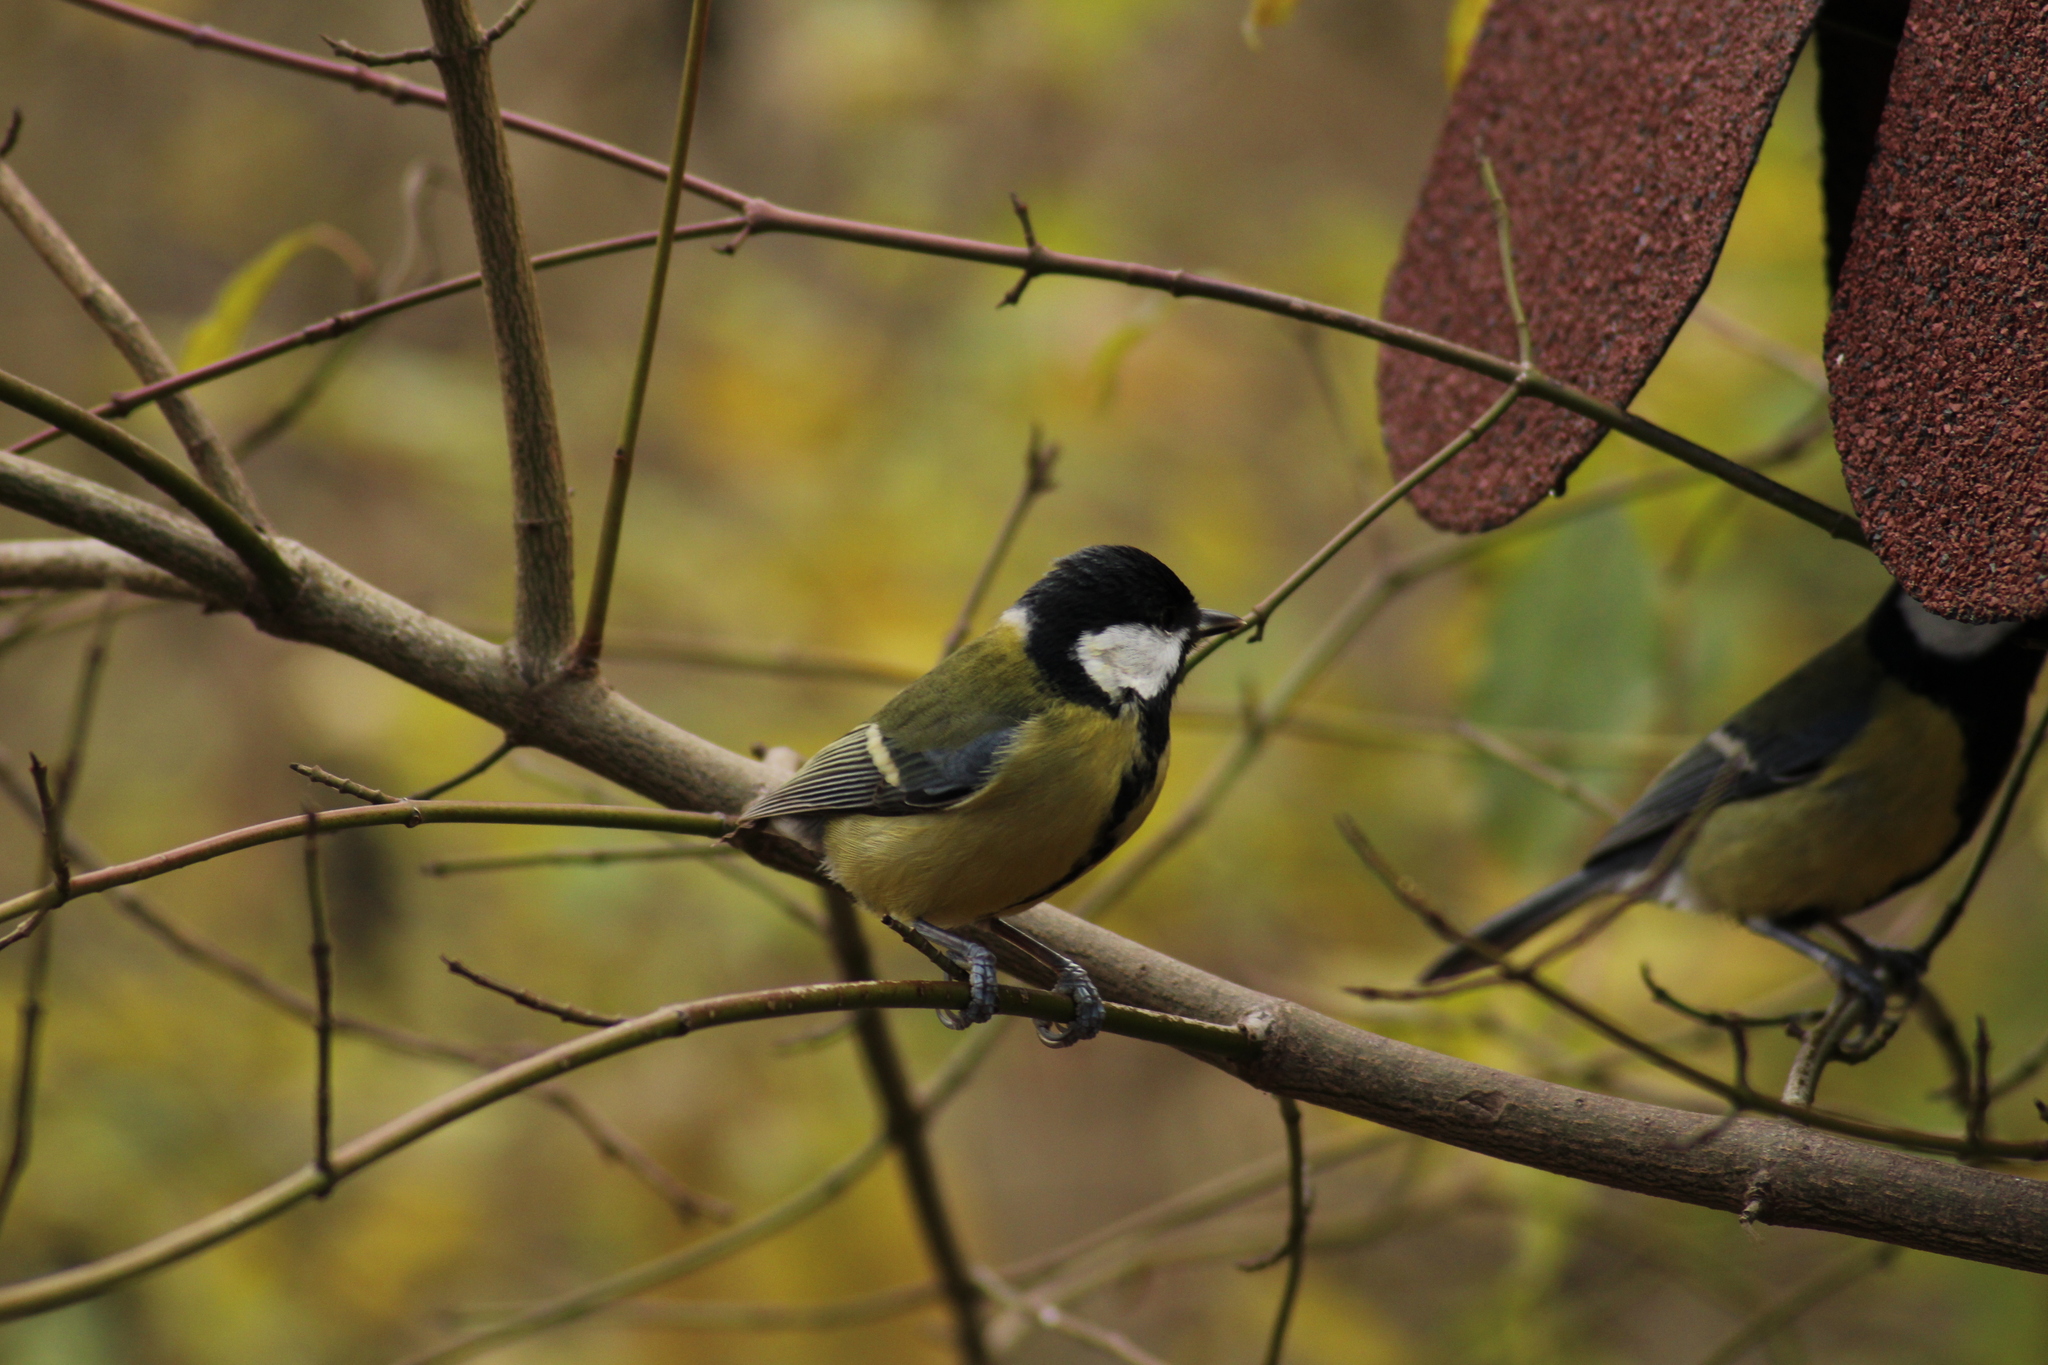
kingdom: Animalia
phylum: Chordata
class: Aves
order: Passeriformes
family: Paridae
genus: Parus
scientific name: Parus major
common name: Great tit
